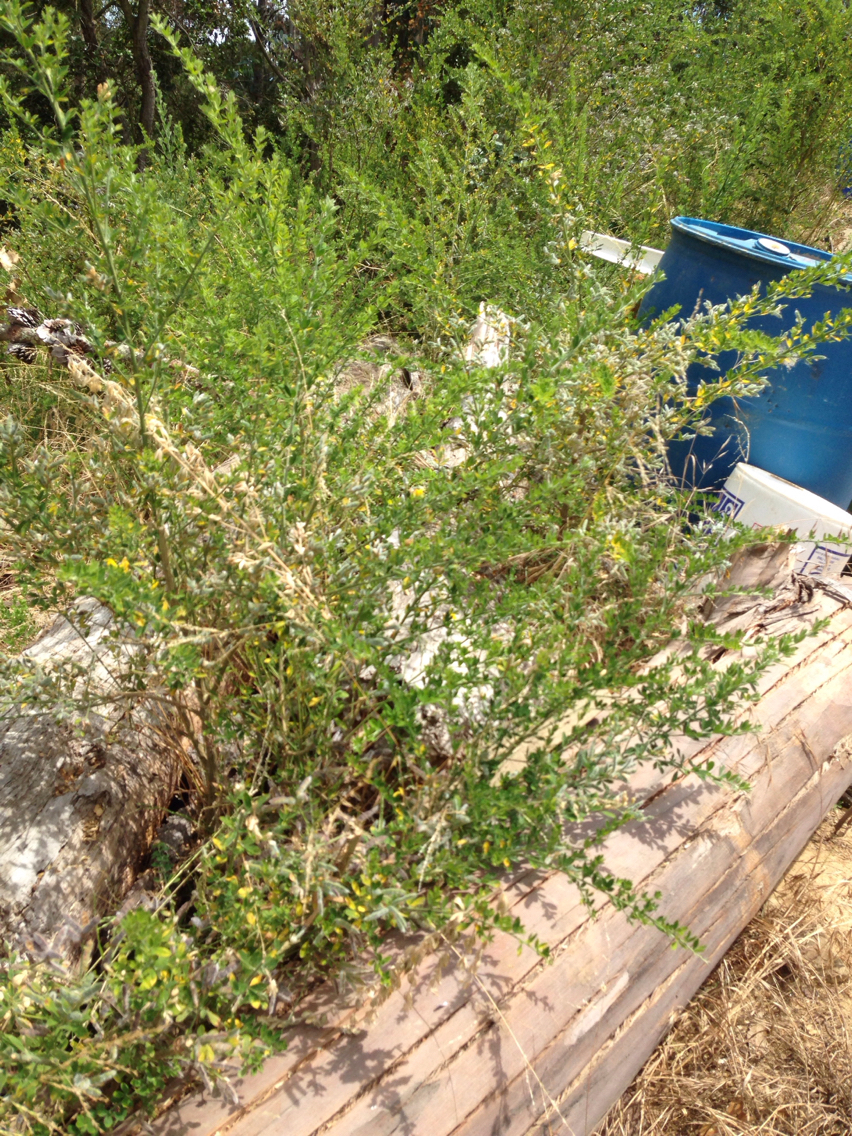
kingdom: Plantae
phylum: Tracheophyta
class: Magnoliopsida
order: Fabales
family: Fabaceae
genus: Genista
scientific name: Genista monspessulana
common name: Montpellier broom
